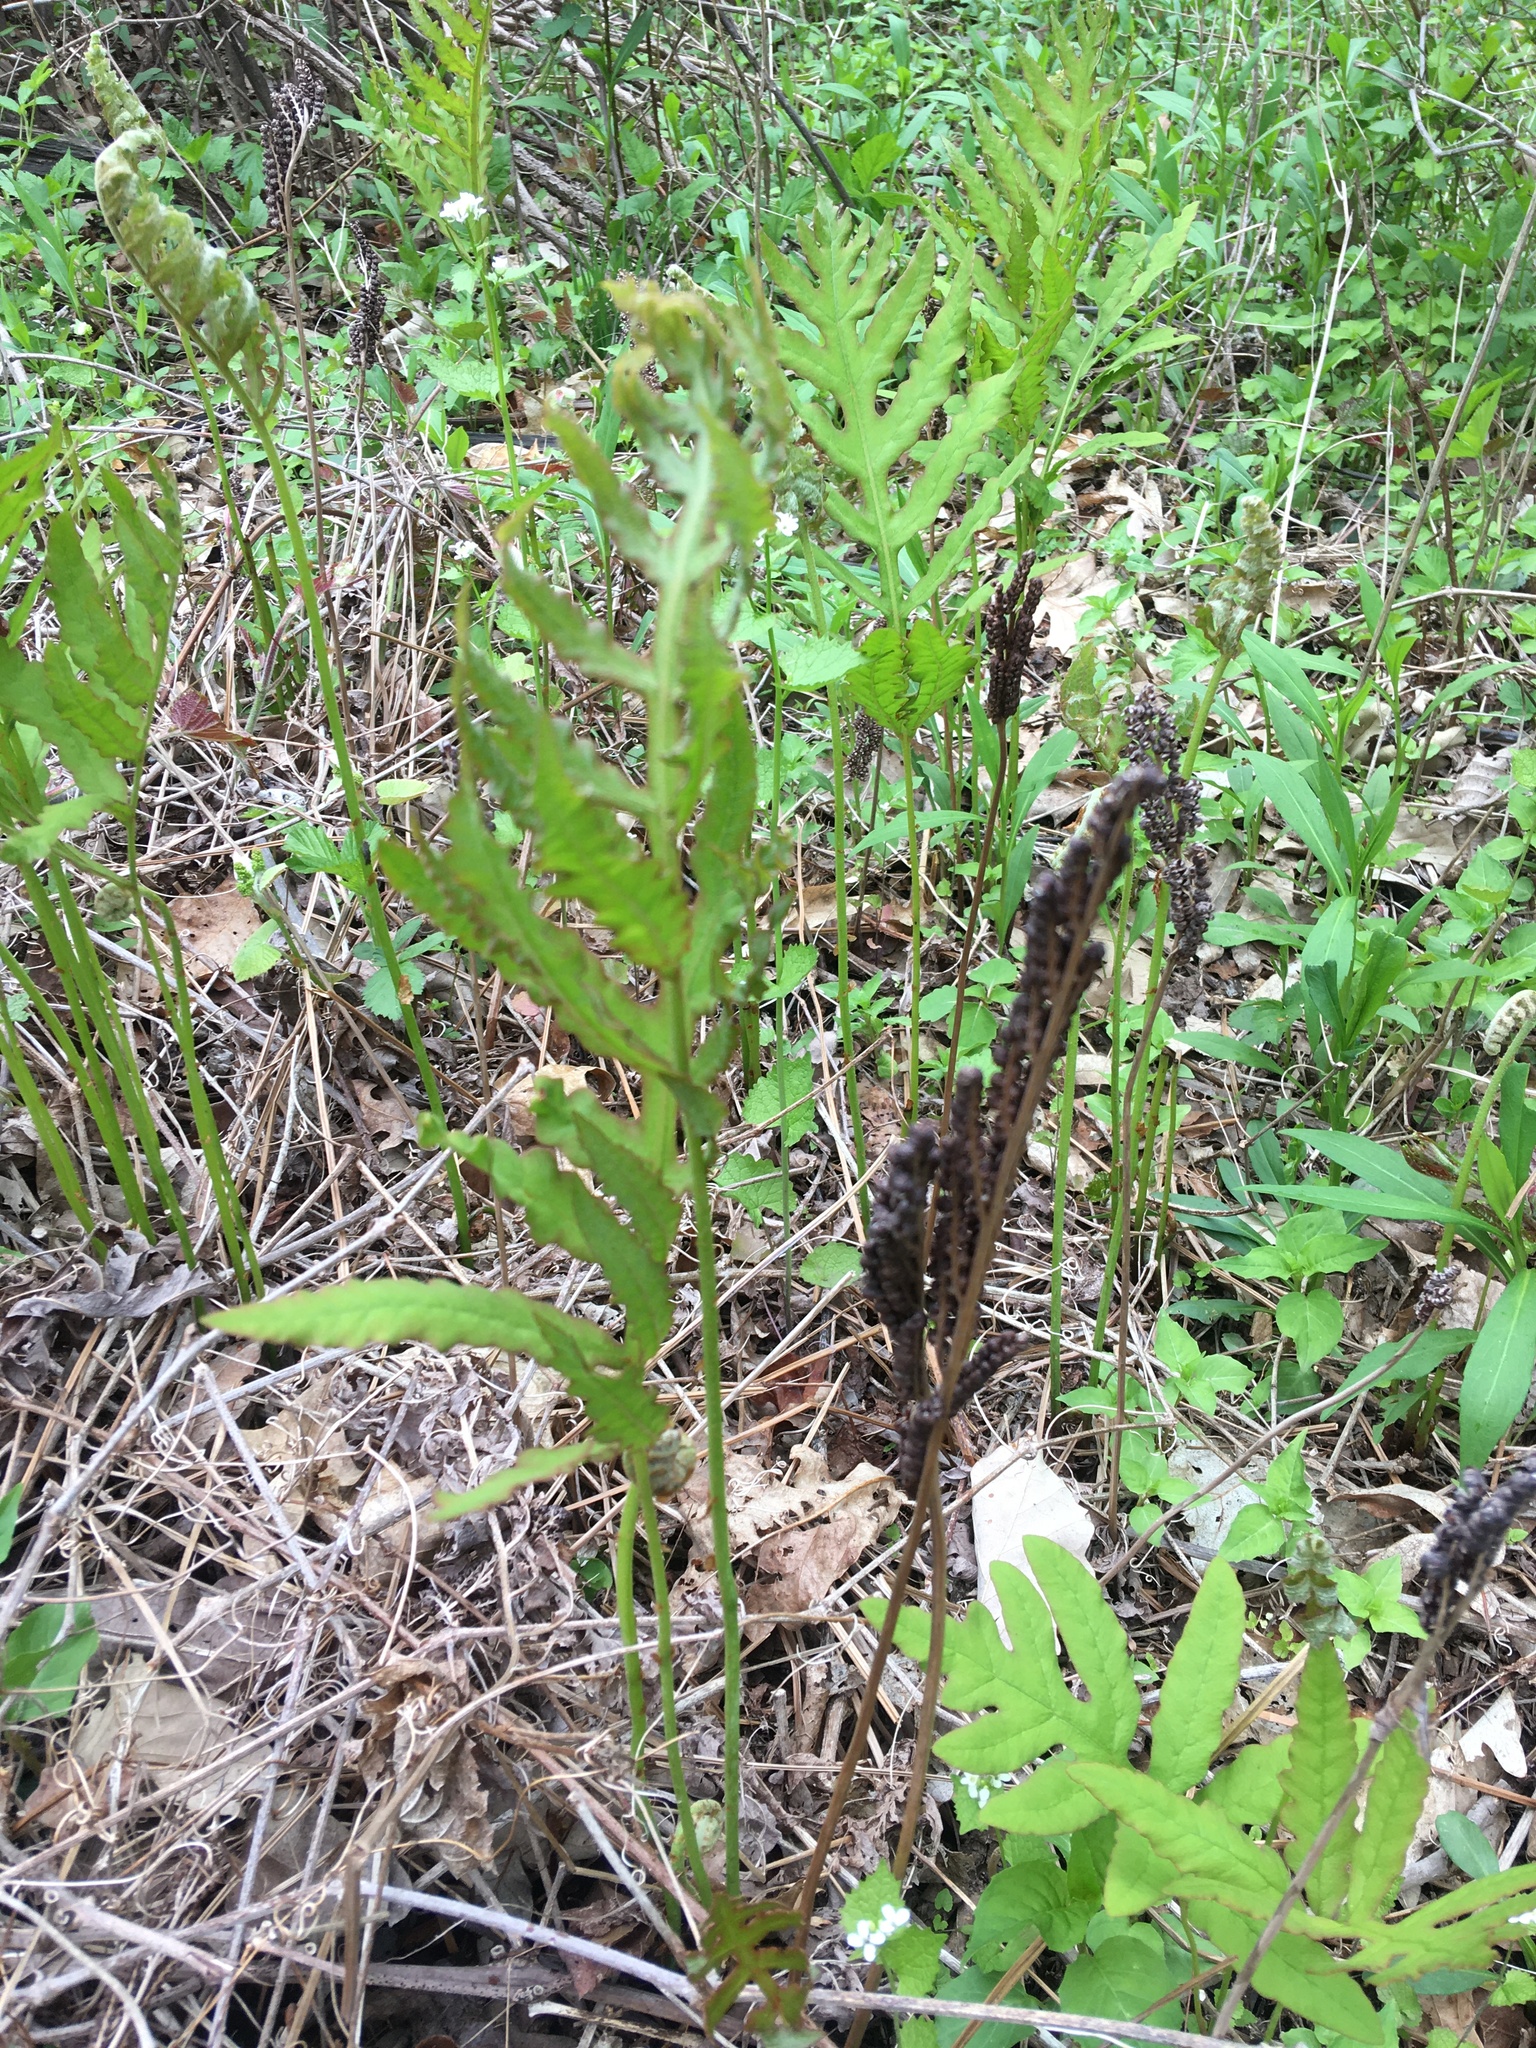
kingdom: Plantae
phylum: Tracheophyta
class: Polypodiopsida
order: Polypodiales
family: Onocleaceae
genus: Onoclea
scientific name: Onoclea sensibilis
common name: Sensitive fern
